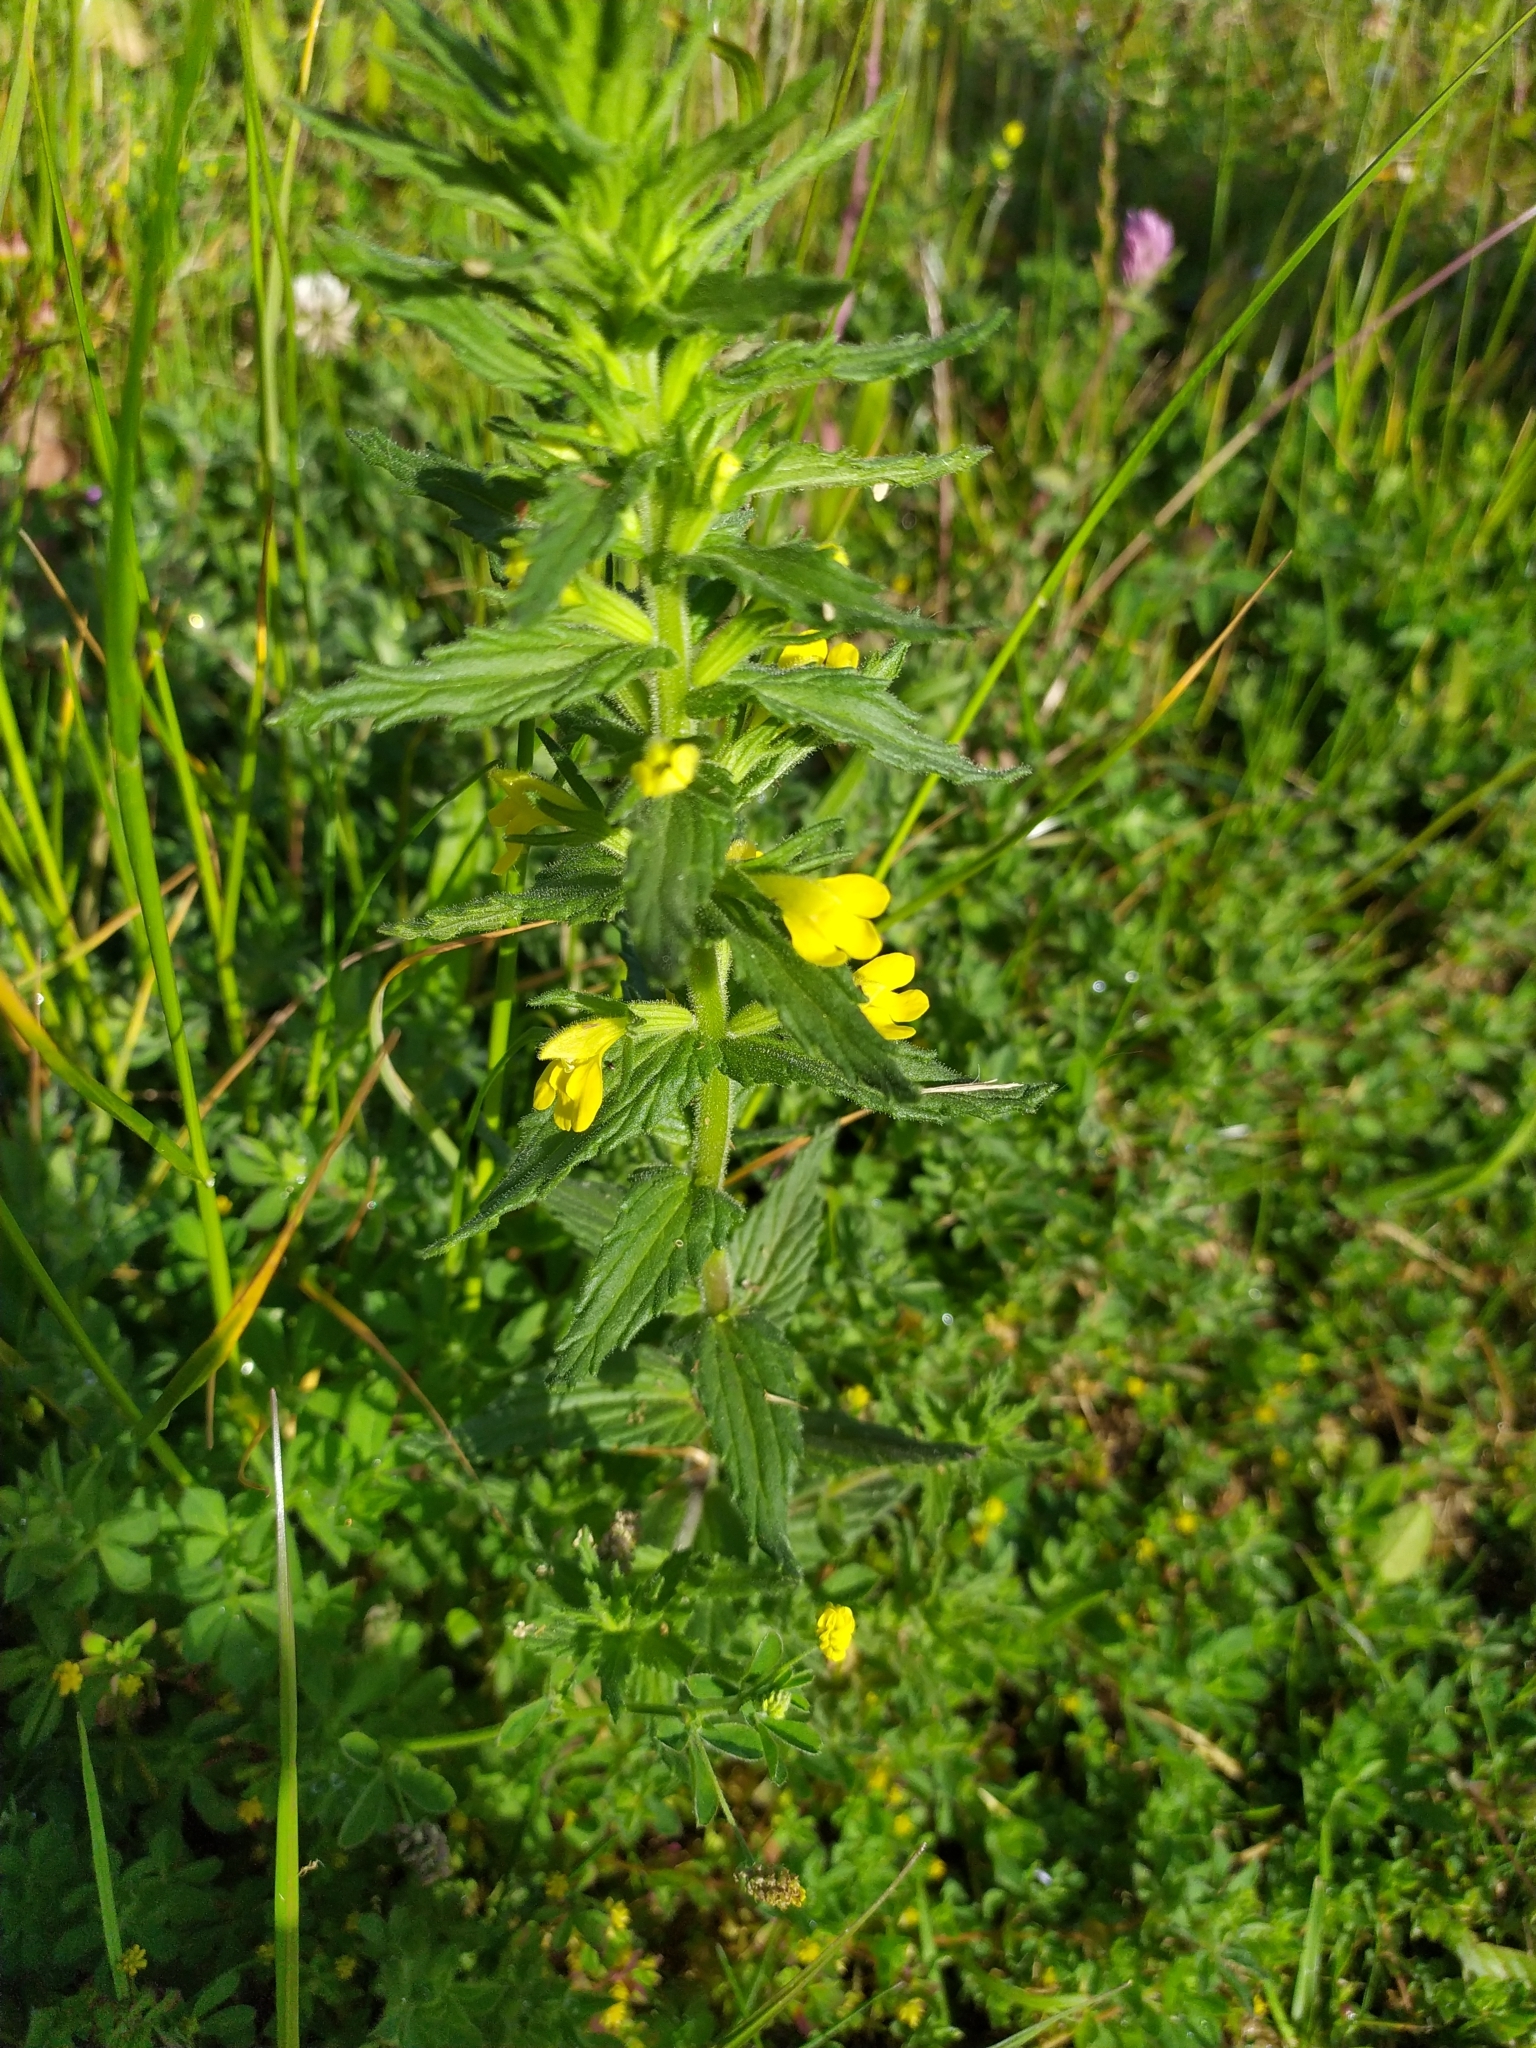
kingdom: Plantae
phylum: Tracheophyta
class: Magnoliopsida
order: Lamiales
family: Orobanchaceae
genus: Bellardia
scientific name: Bellardia viscosa
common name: Sticky parentucellia
